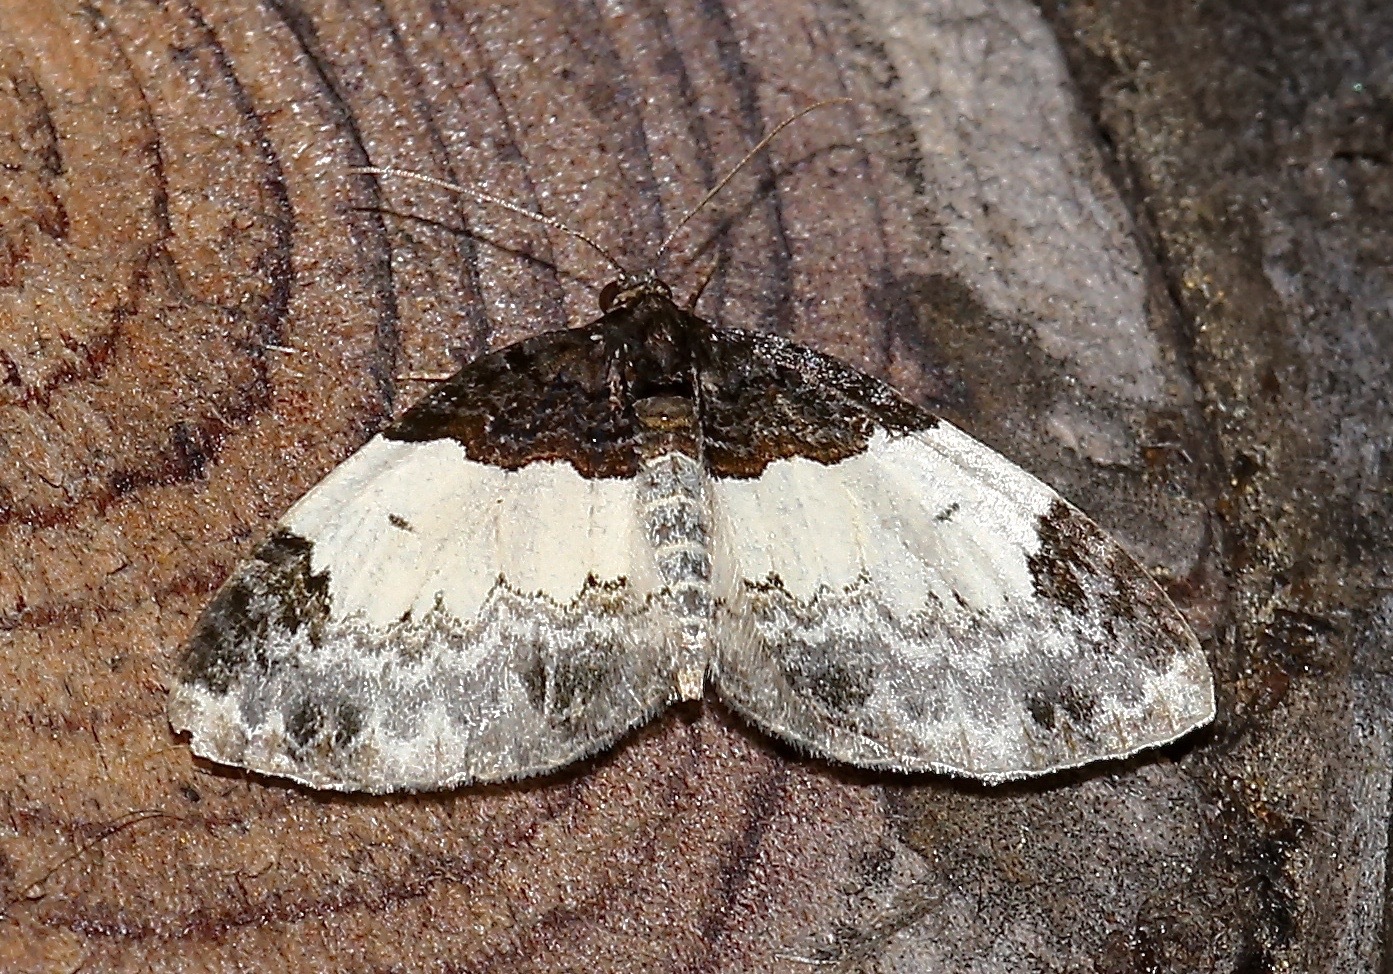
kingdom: Animalia
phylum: Arthropoda
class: Insecta
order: Lepidoptera
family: Geometridae
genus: Mesoleuca
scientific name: Mesoleuca ruficillata
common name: White-ribboned carpet moth
